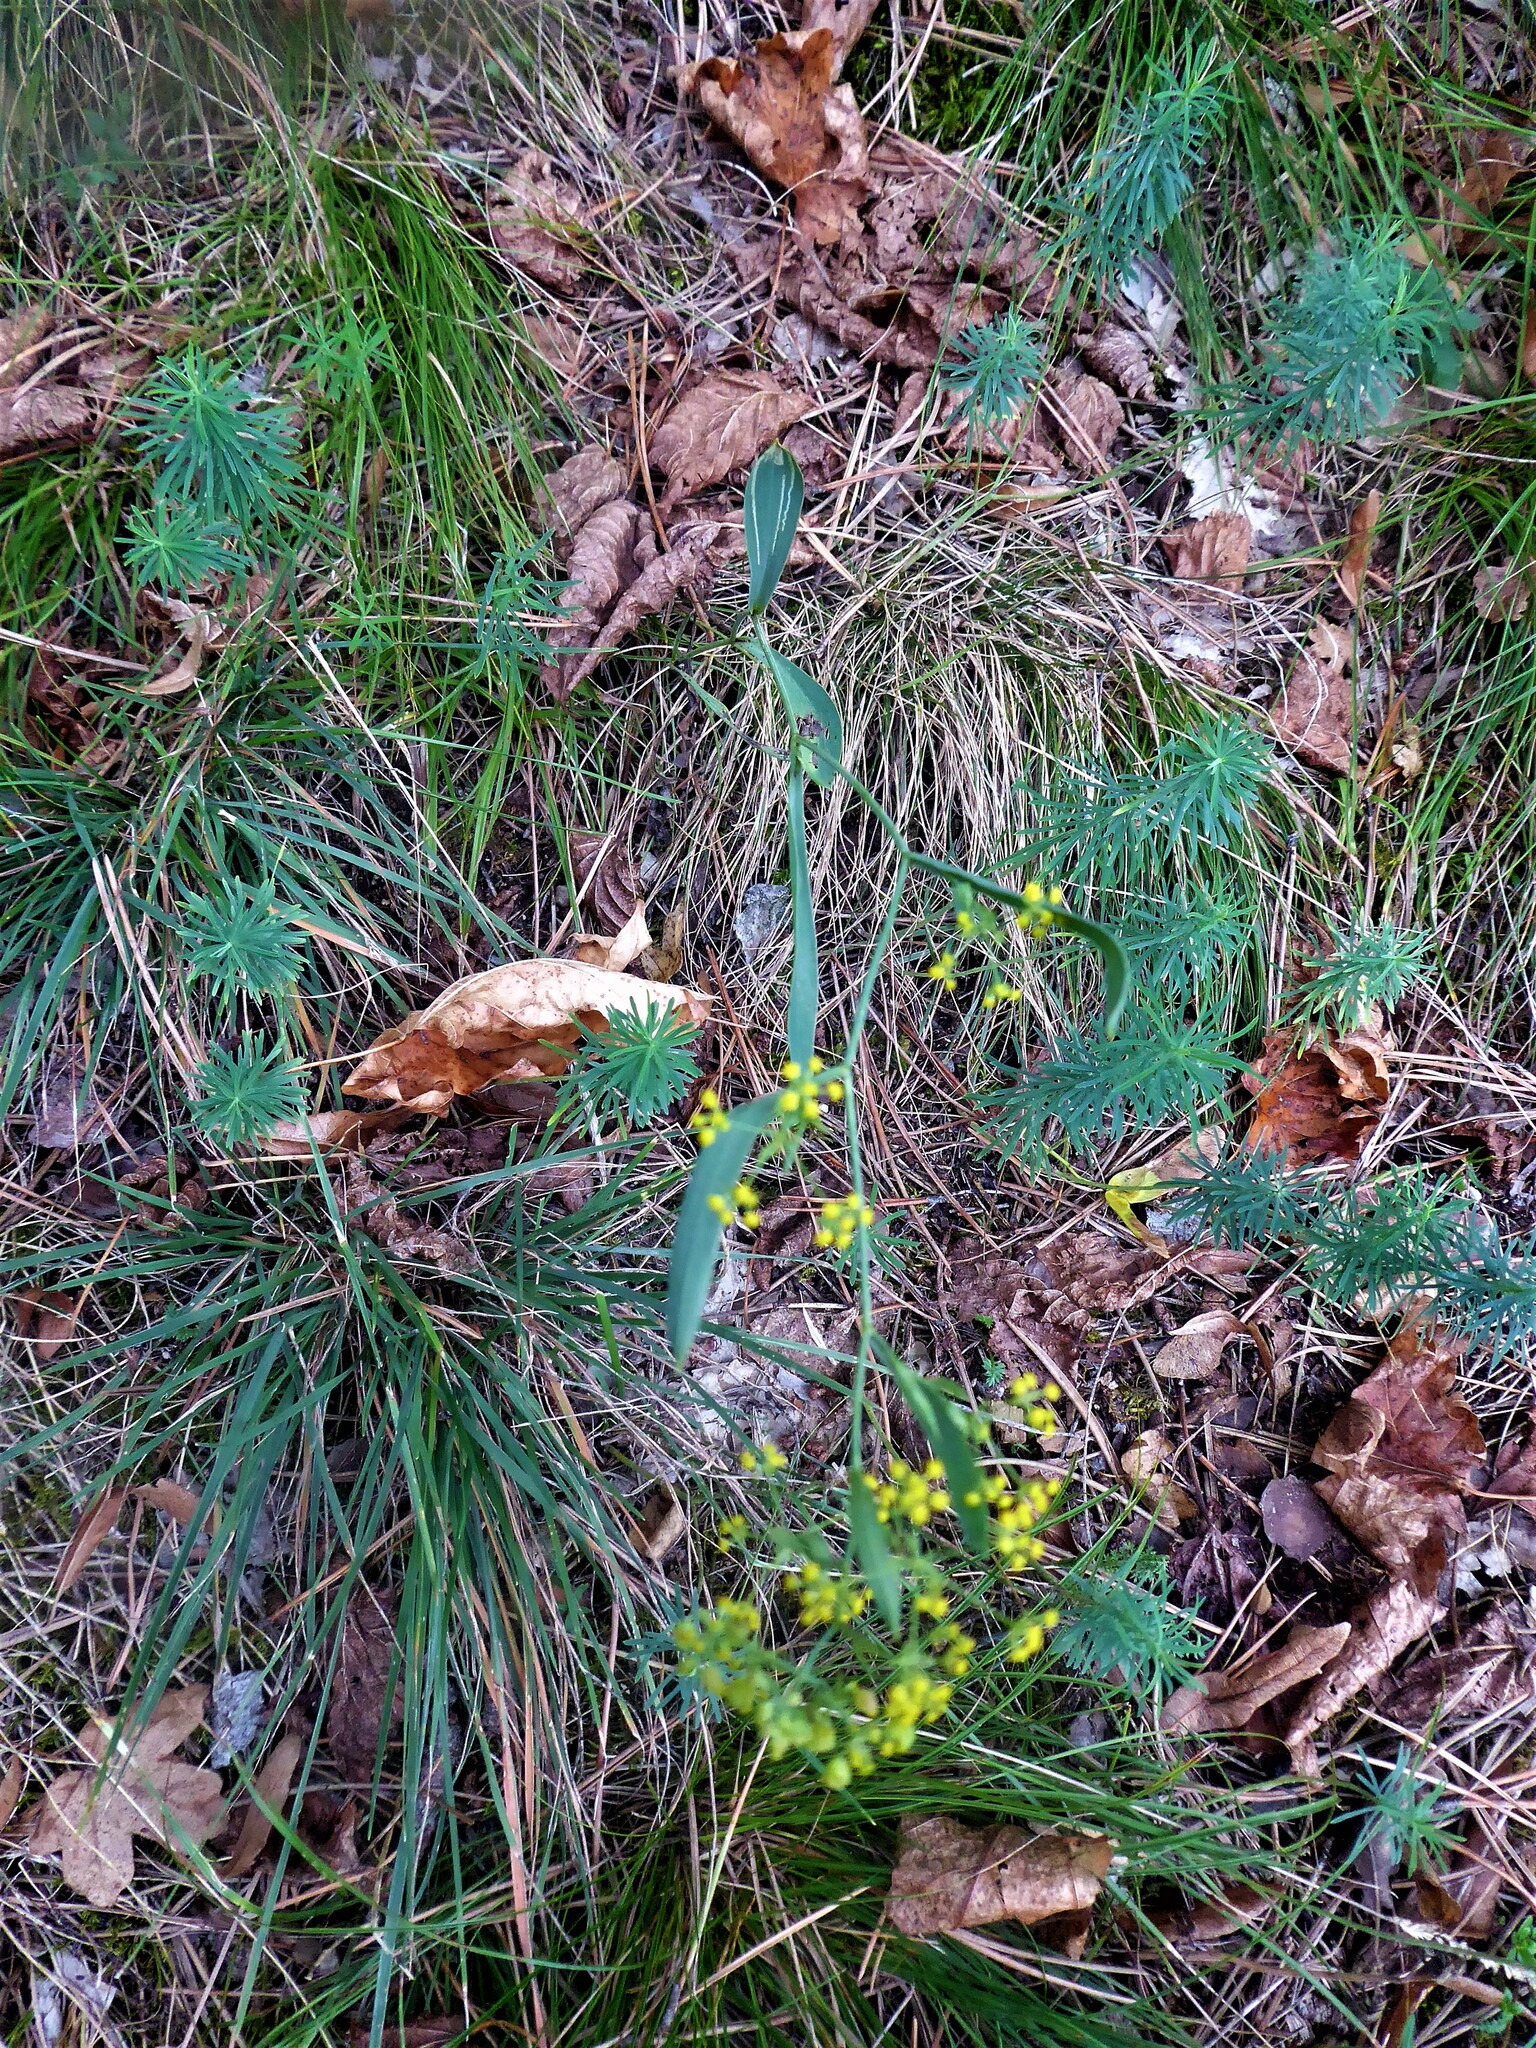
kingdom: Plantae
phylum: Tracheophyta
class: Magnoliopsida
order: Apiales
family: Apiaceae
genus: Bupleurum
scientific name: Bupleurum falcatum
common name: Sickle-leaved hare's-ear
